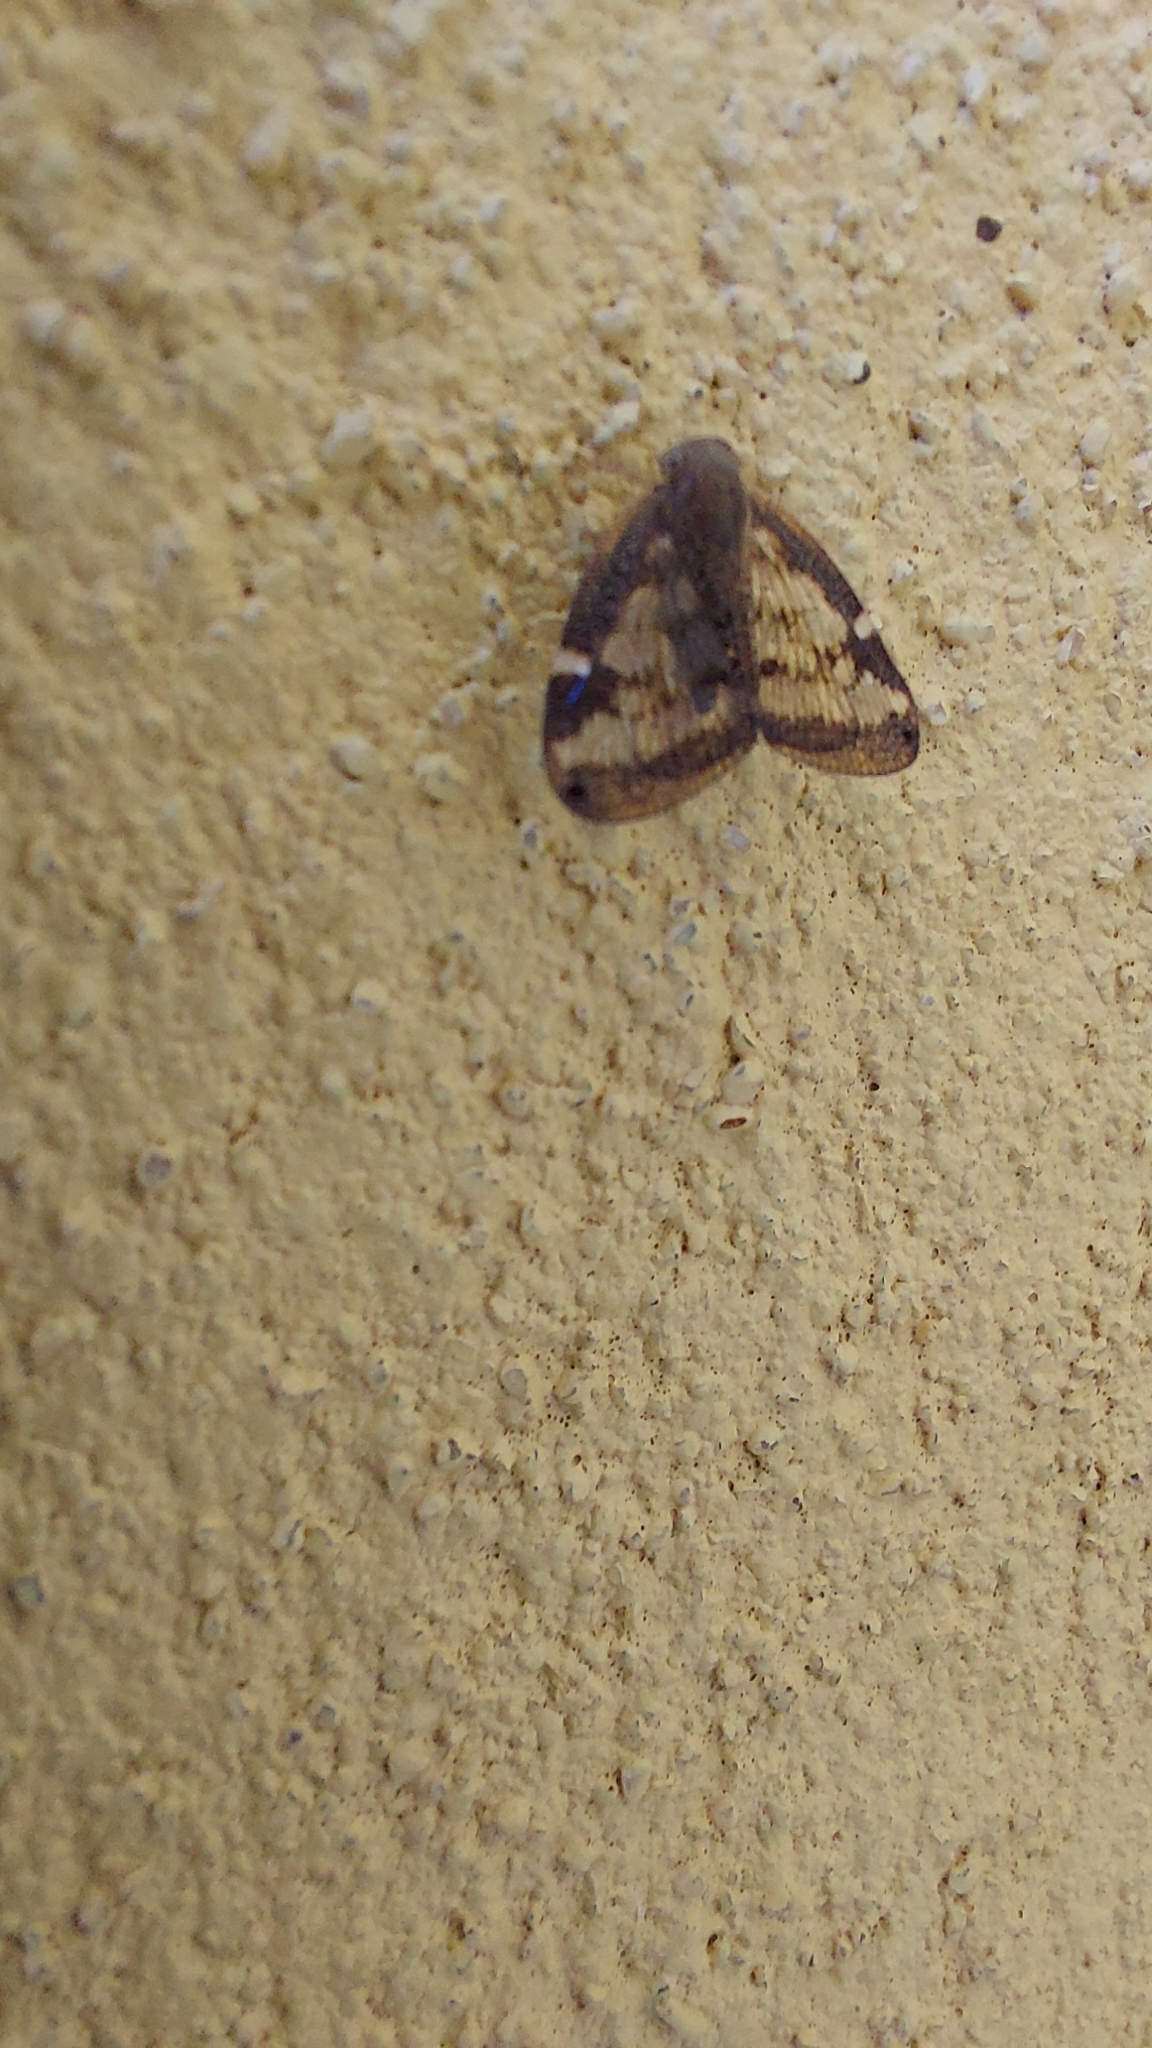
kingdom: Animalia
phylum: Arthropoda
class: Insecta
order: Hemiptera
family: Ricaniidae
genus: Scolypopa
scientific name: Scolypopa australis
